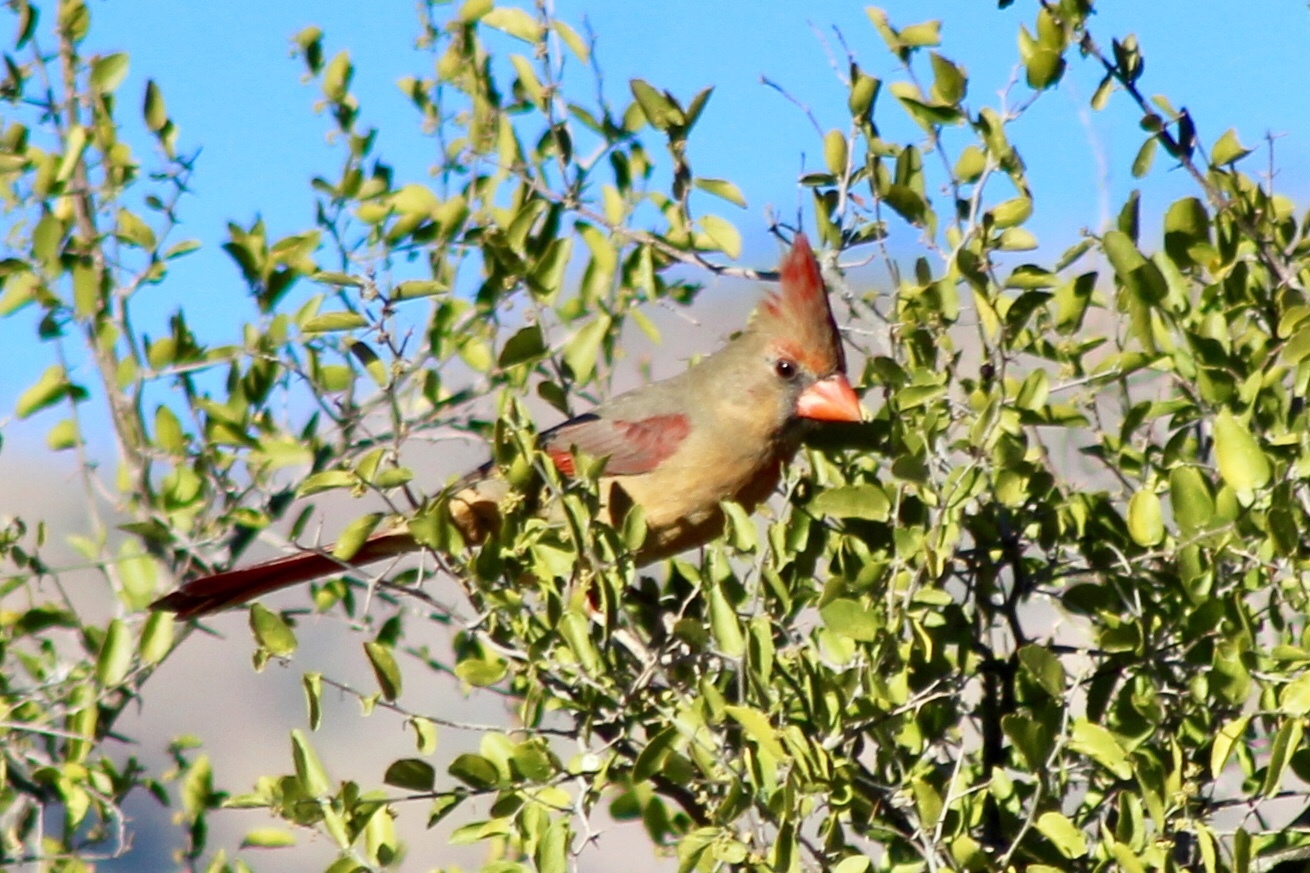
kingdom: Animalia
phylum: Chordata
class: Aves
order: Passeriformes
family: Cardinalidae
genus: Cardinalis
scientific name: Cardinalis cardinalis
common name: Northern cardinal
